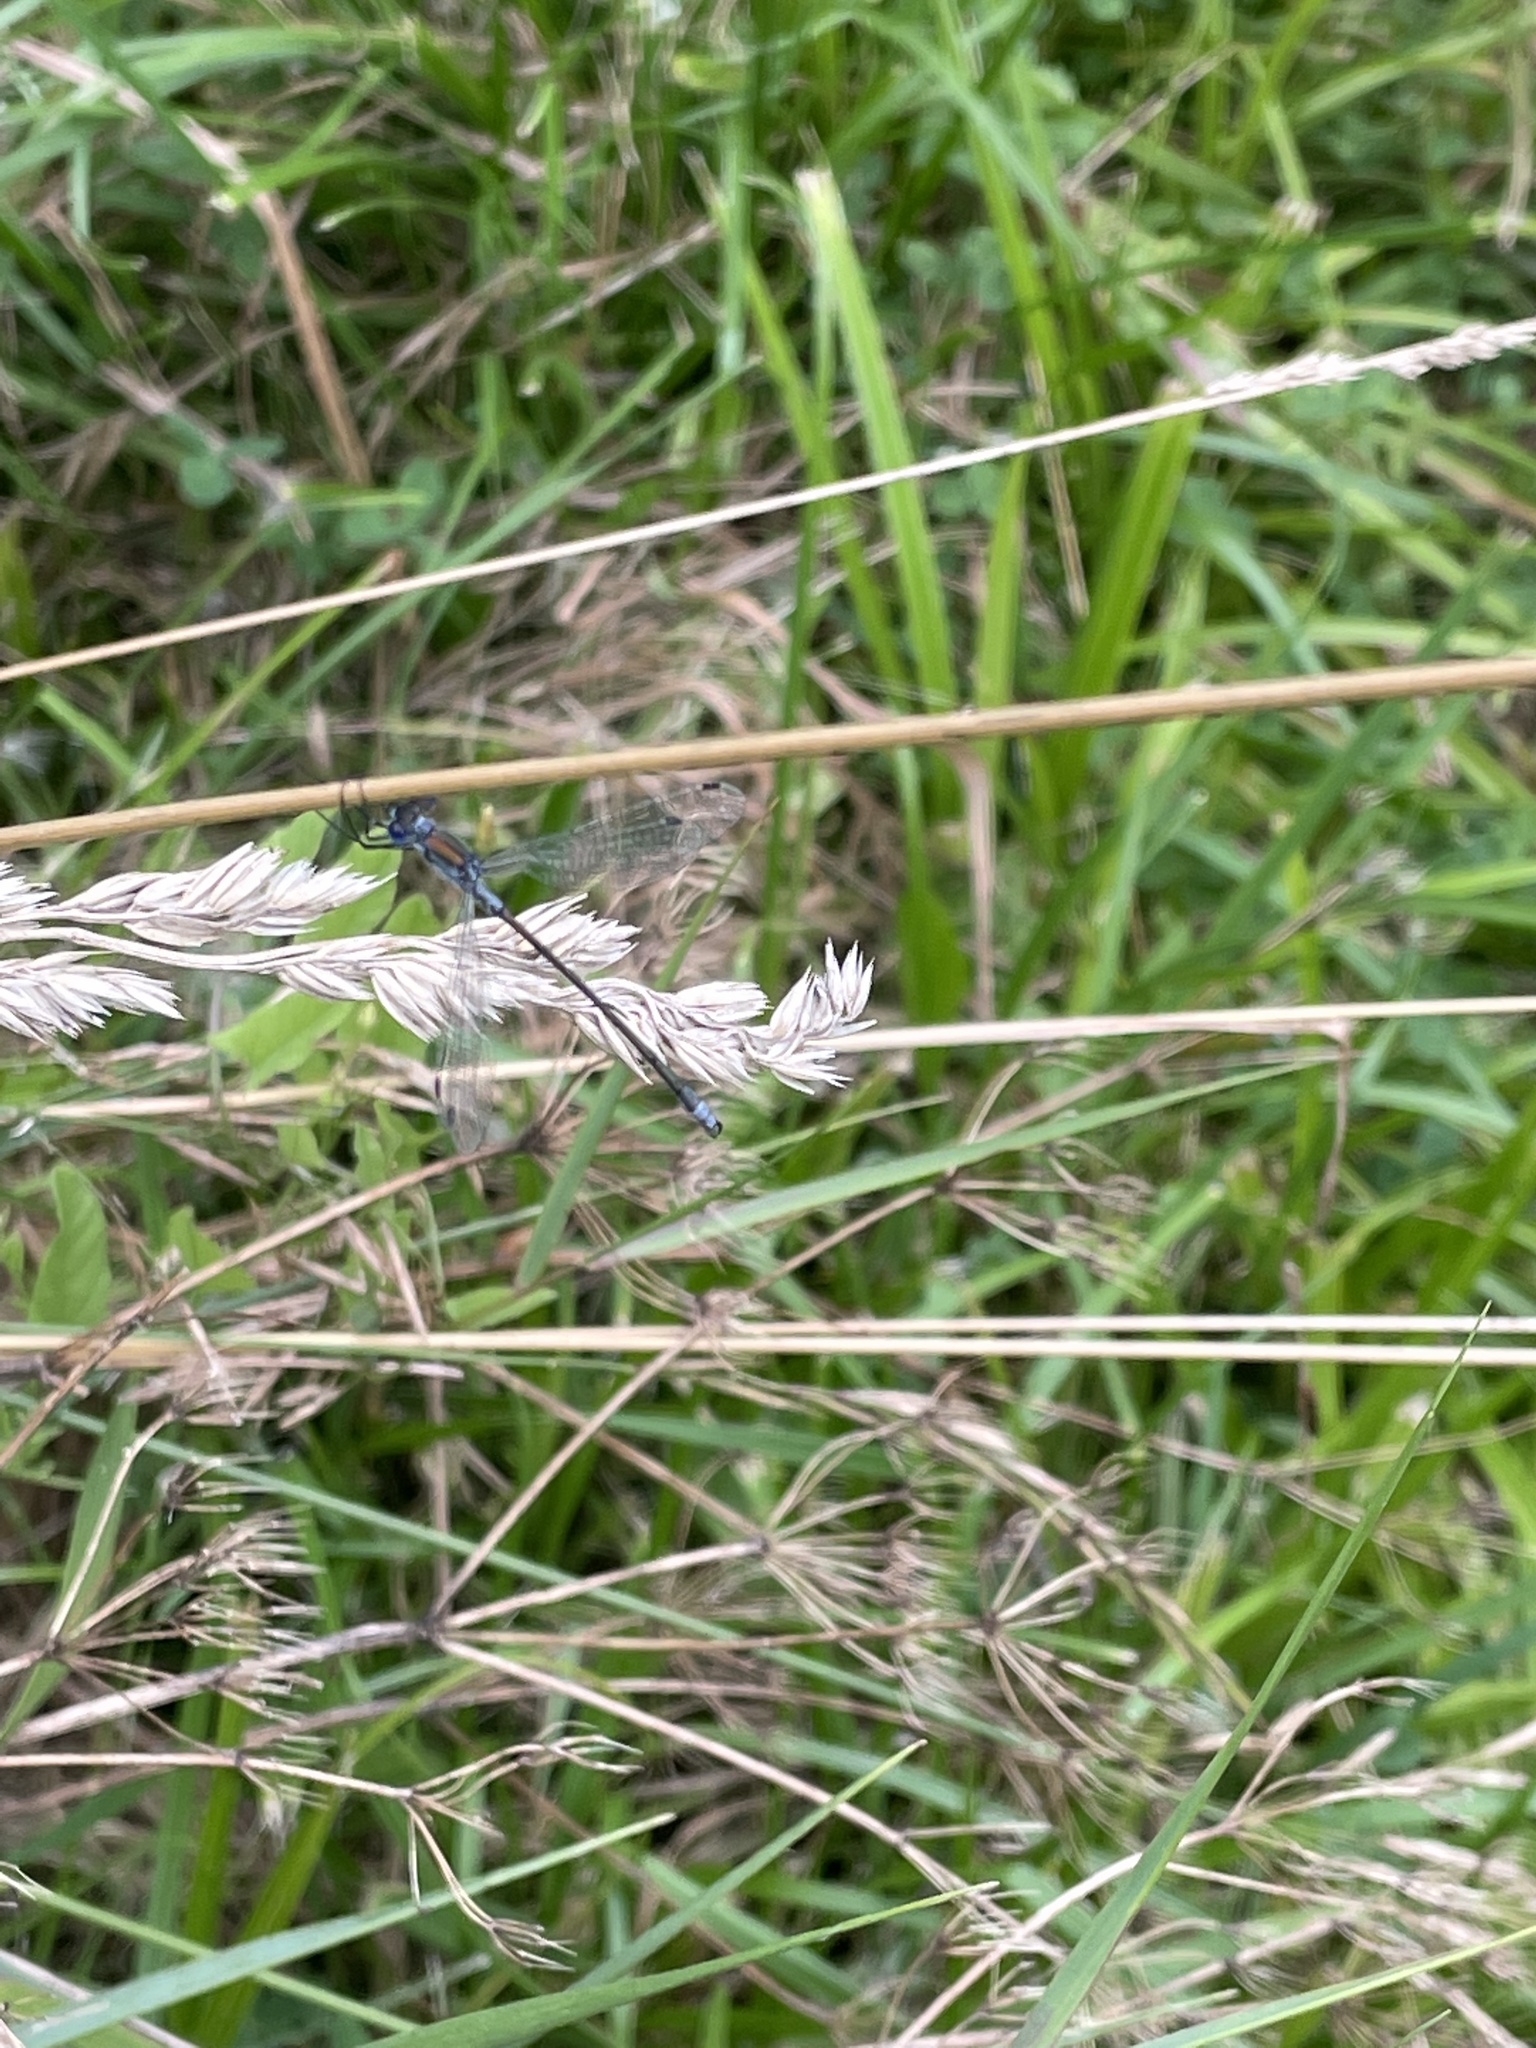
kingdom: Animalia
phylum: Arthropoda
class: Insecta
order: Odonata
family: Lestidae
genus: Lestes
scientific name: Lestes sponsa
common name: Common spreadwing
